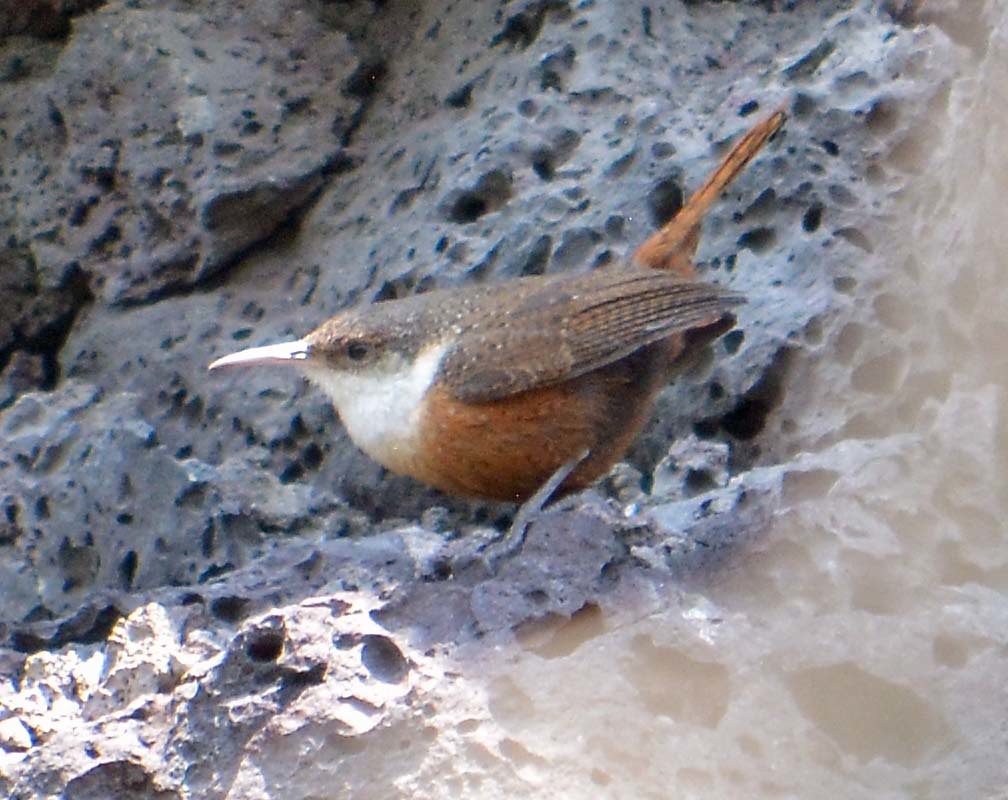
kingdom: Animalia
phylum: Chordata
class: Aves
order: Passeriformes
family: Troglodytidae
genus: Catherpes
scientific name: Catherpes mexicanus
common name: Canyon wren
